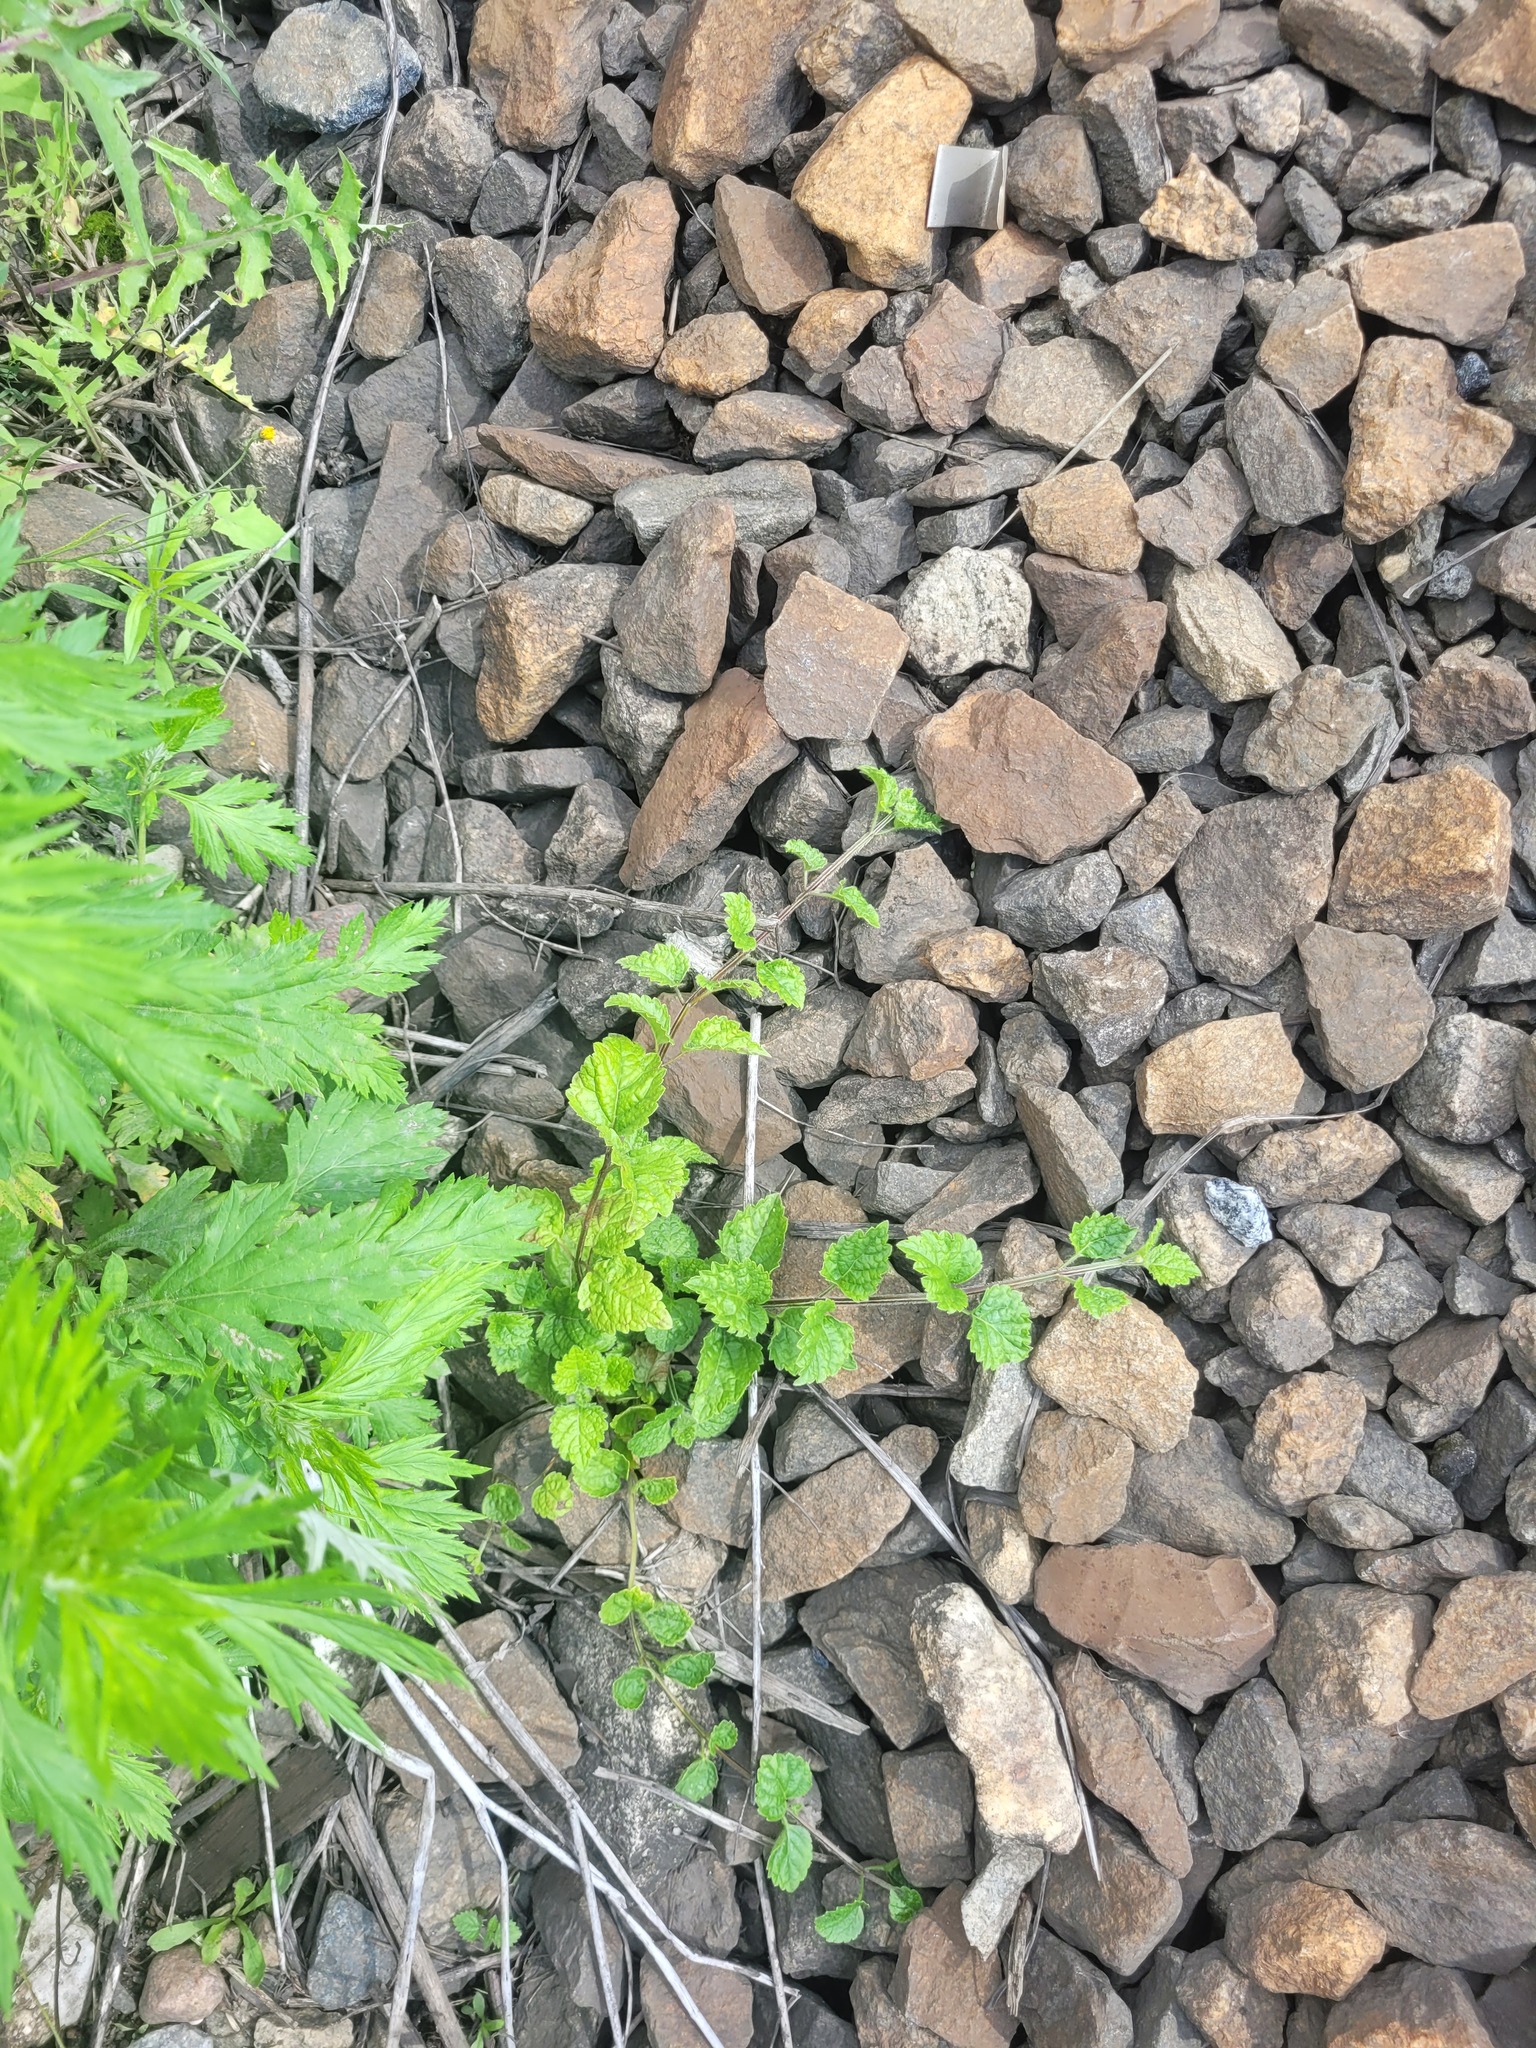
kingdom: Plantae
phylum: Tracheophyta
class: Magnoliopsida
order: Lamiales
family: Lamiaceae
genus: Lamium
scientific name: Lamium galeobdolon
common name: Yellow archangel
